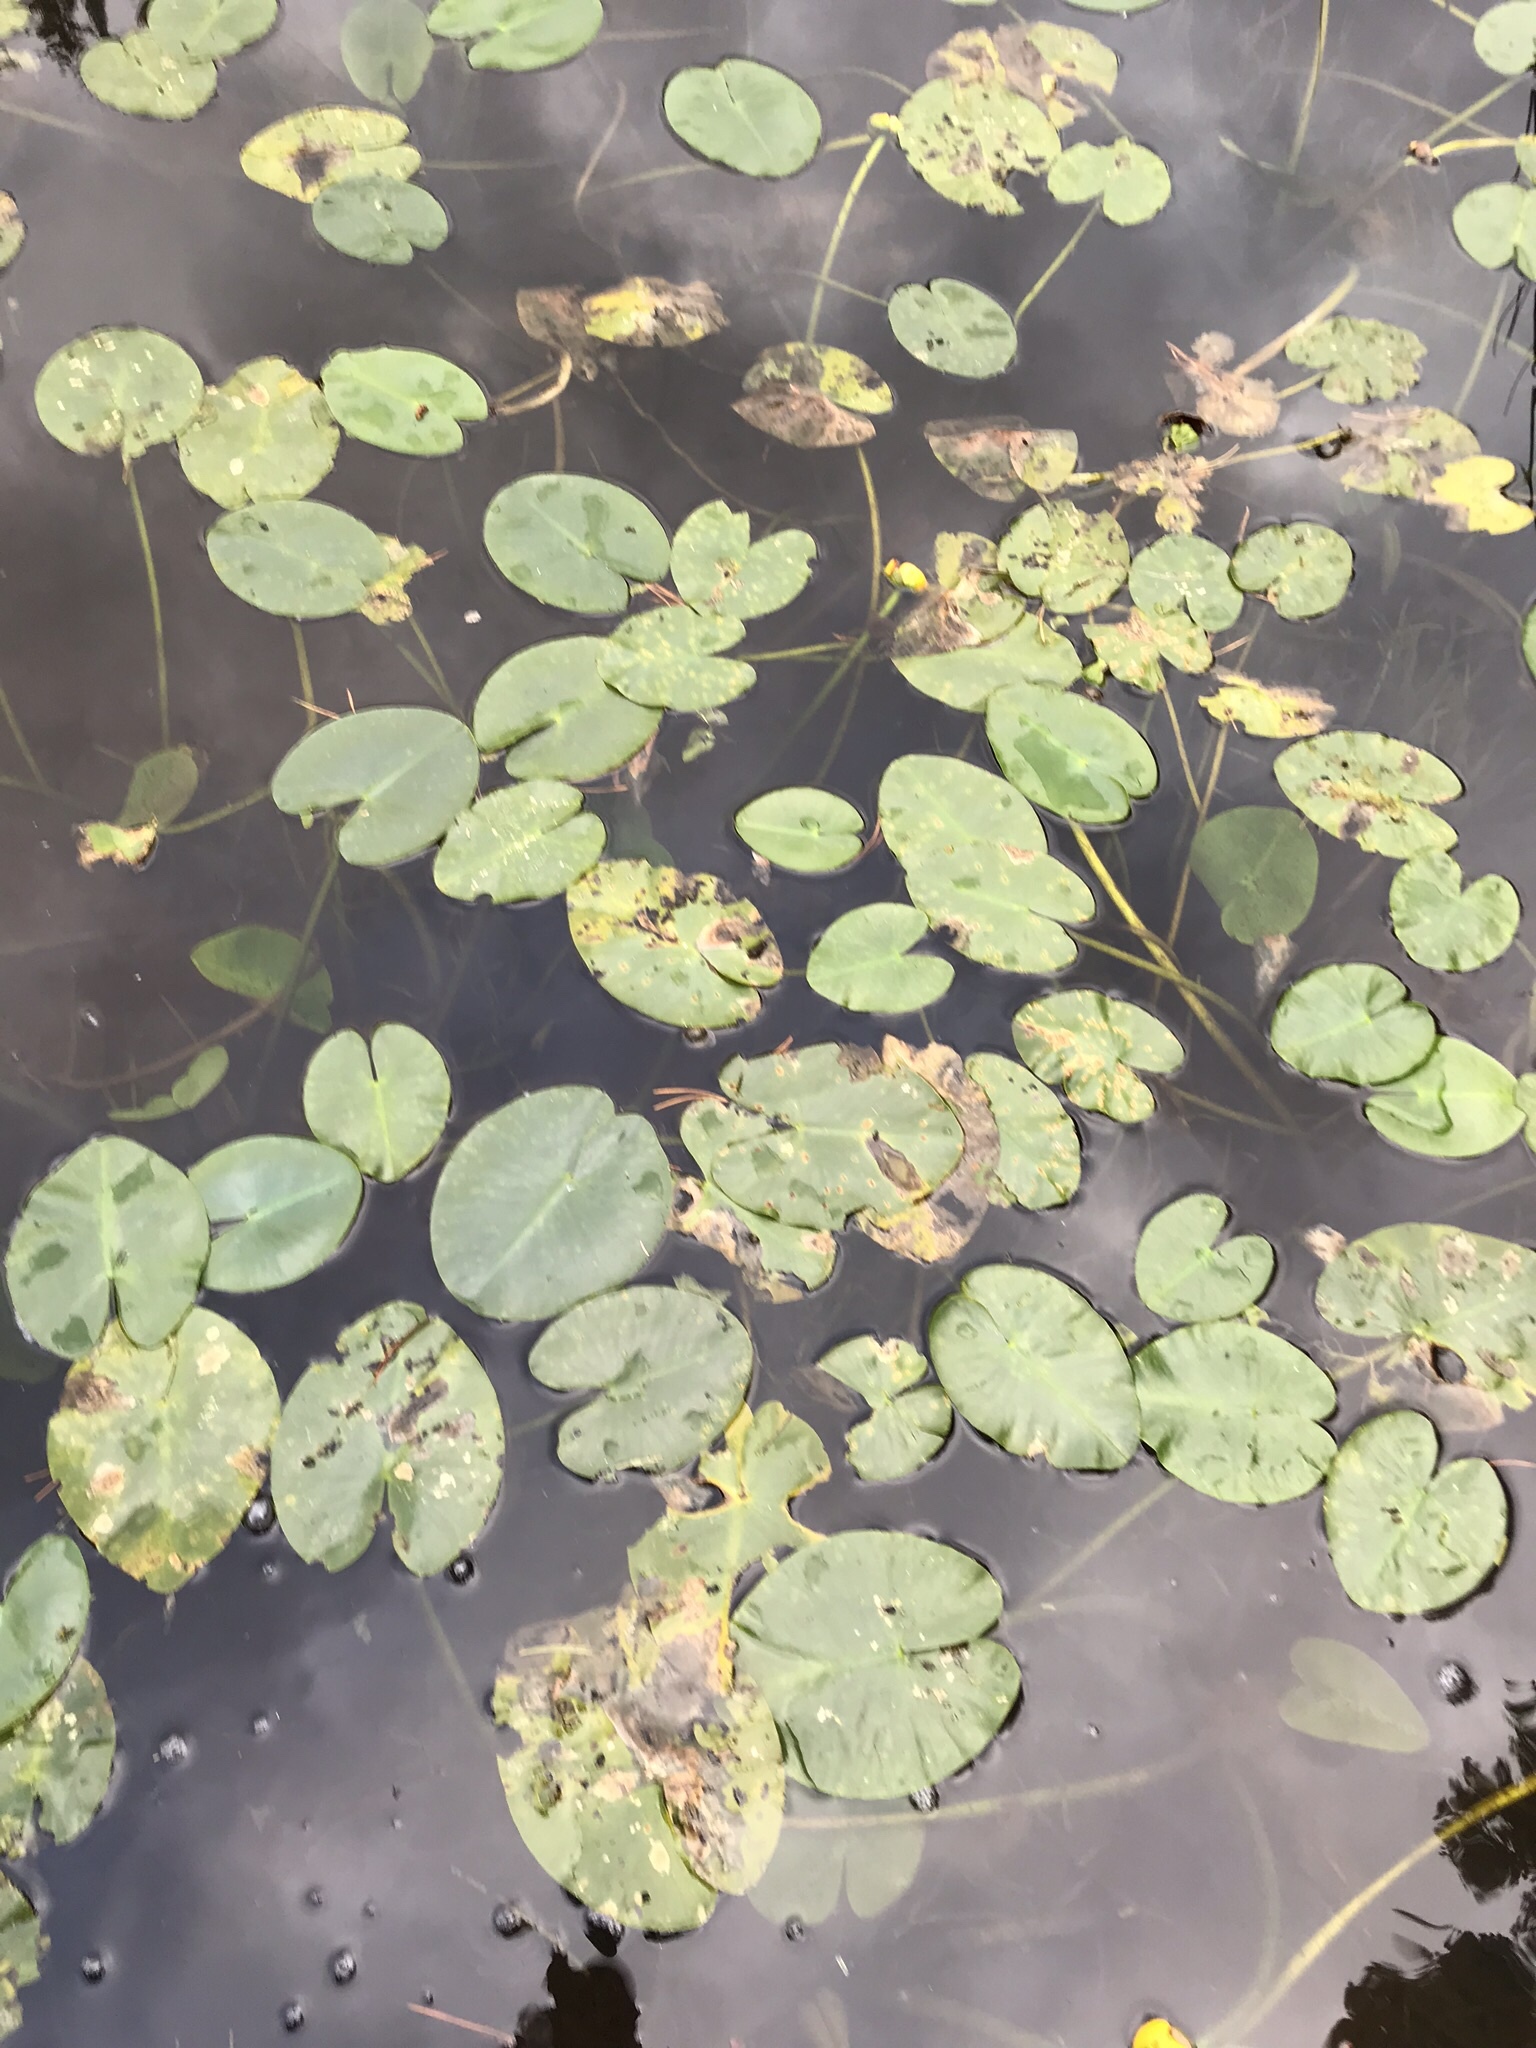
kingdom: Plantae
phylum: Tracheophyta
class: Magnoliopsida
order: Nymphaeales
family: Nymphaeaceae
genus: Nuphar
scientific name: Nuphar variegata
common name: Beaver-root
